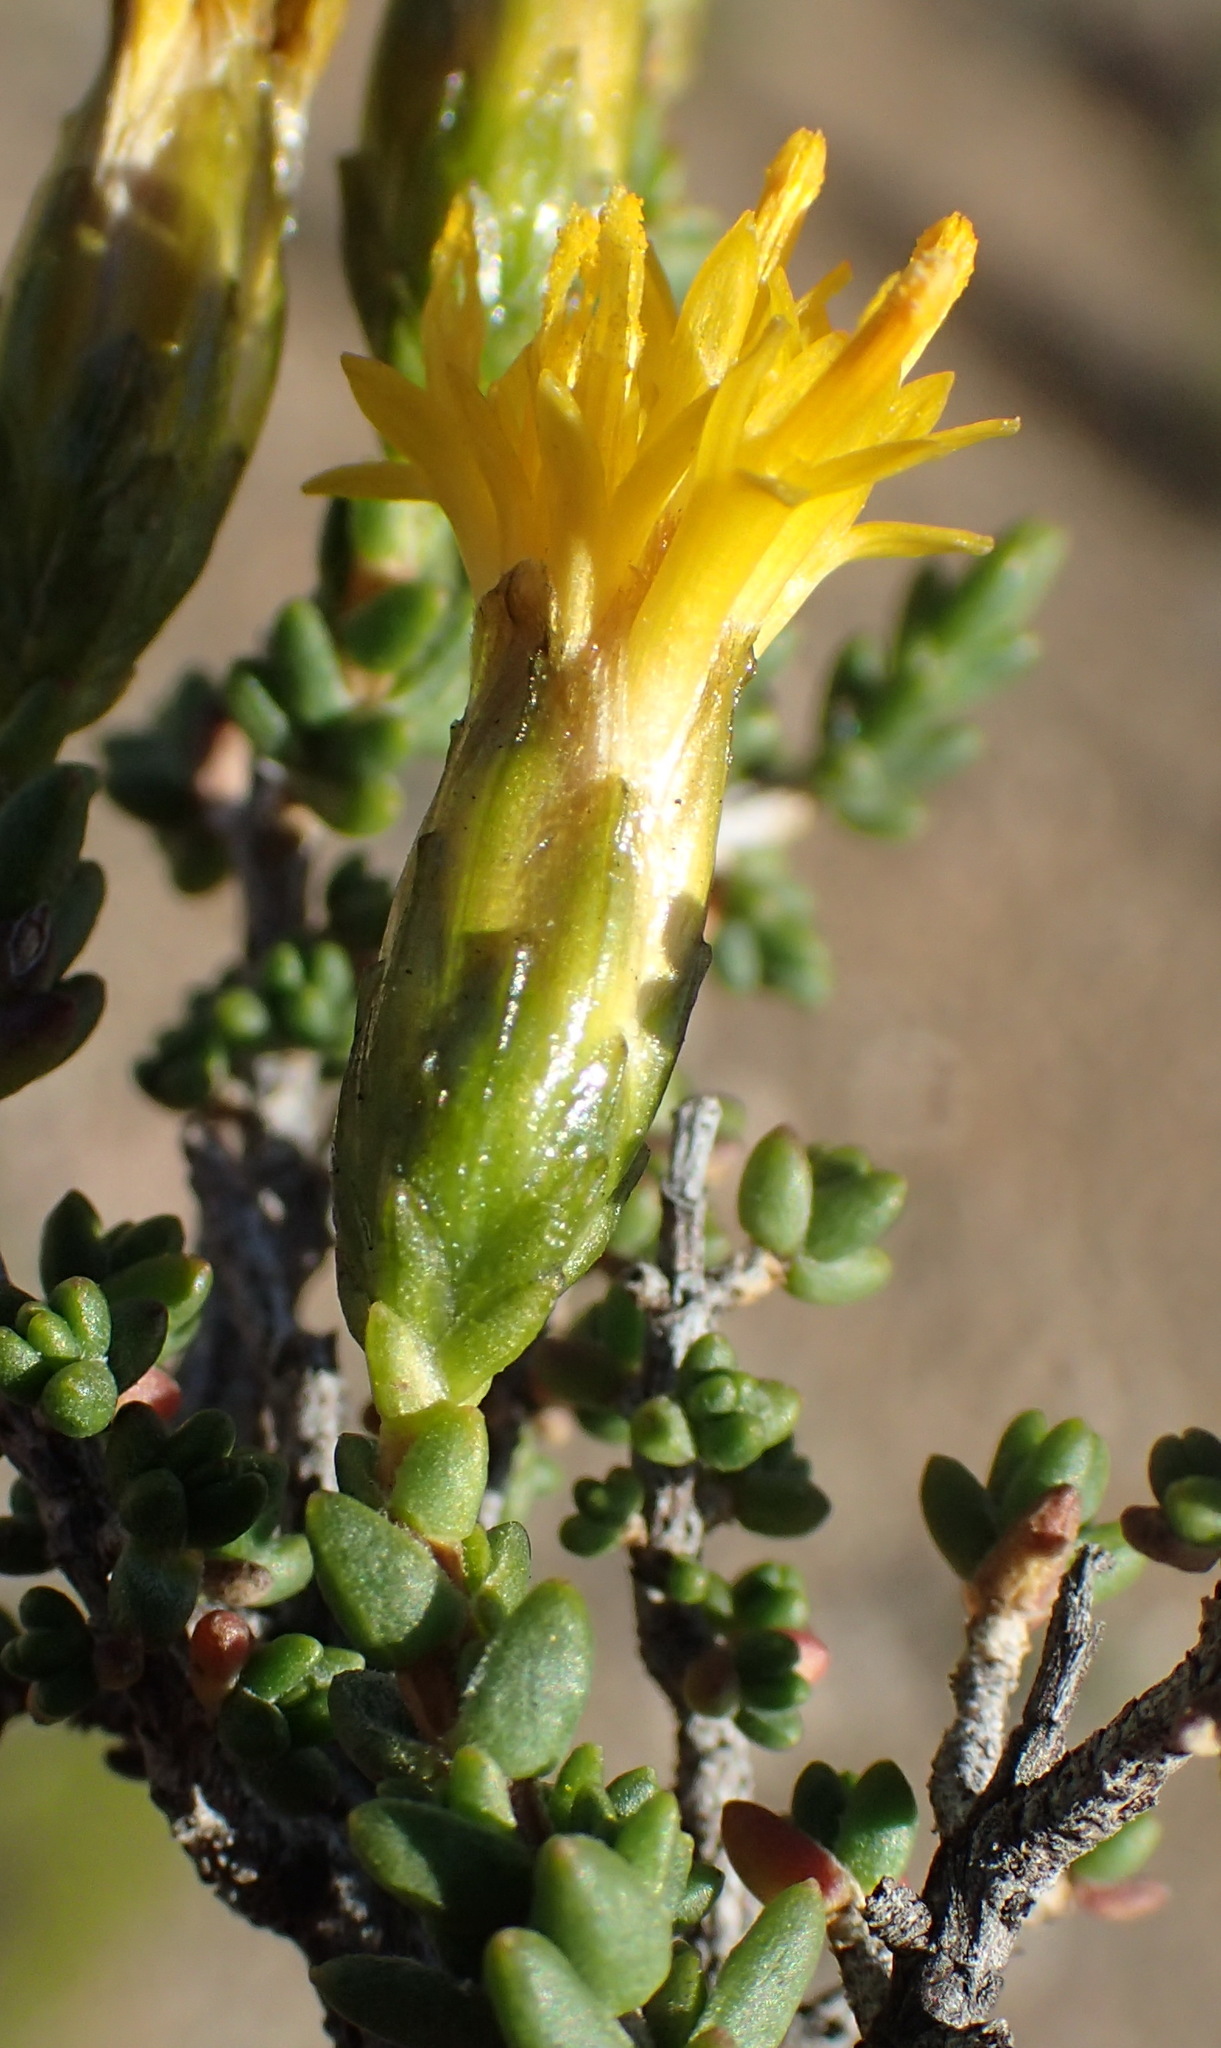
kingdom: Plantae
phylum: Tracheophyta
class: Magnoliopsida
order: Asterales
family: Asteraceae
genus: Pteronia
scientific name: Pteronia glomerata
